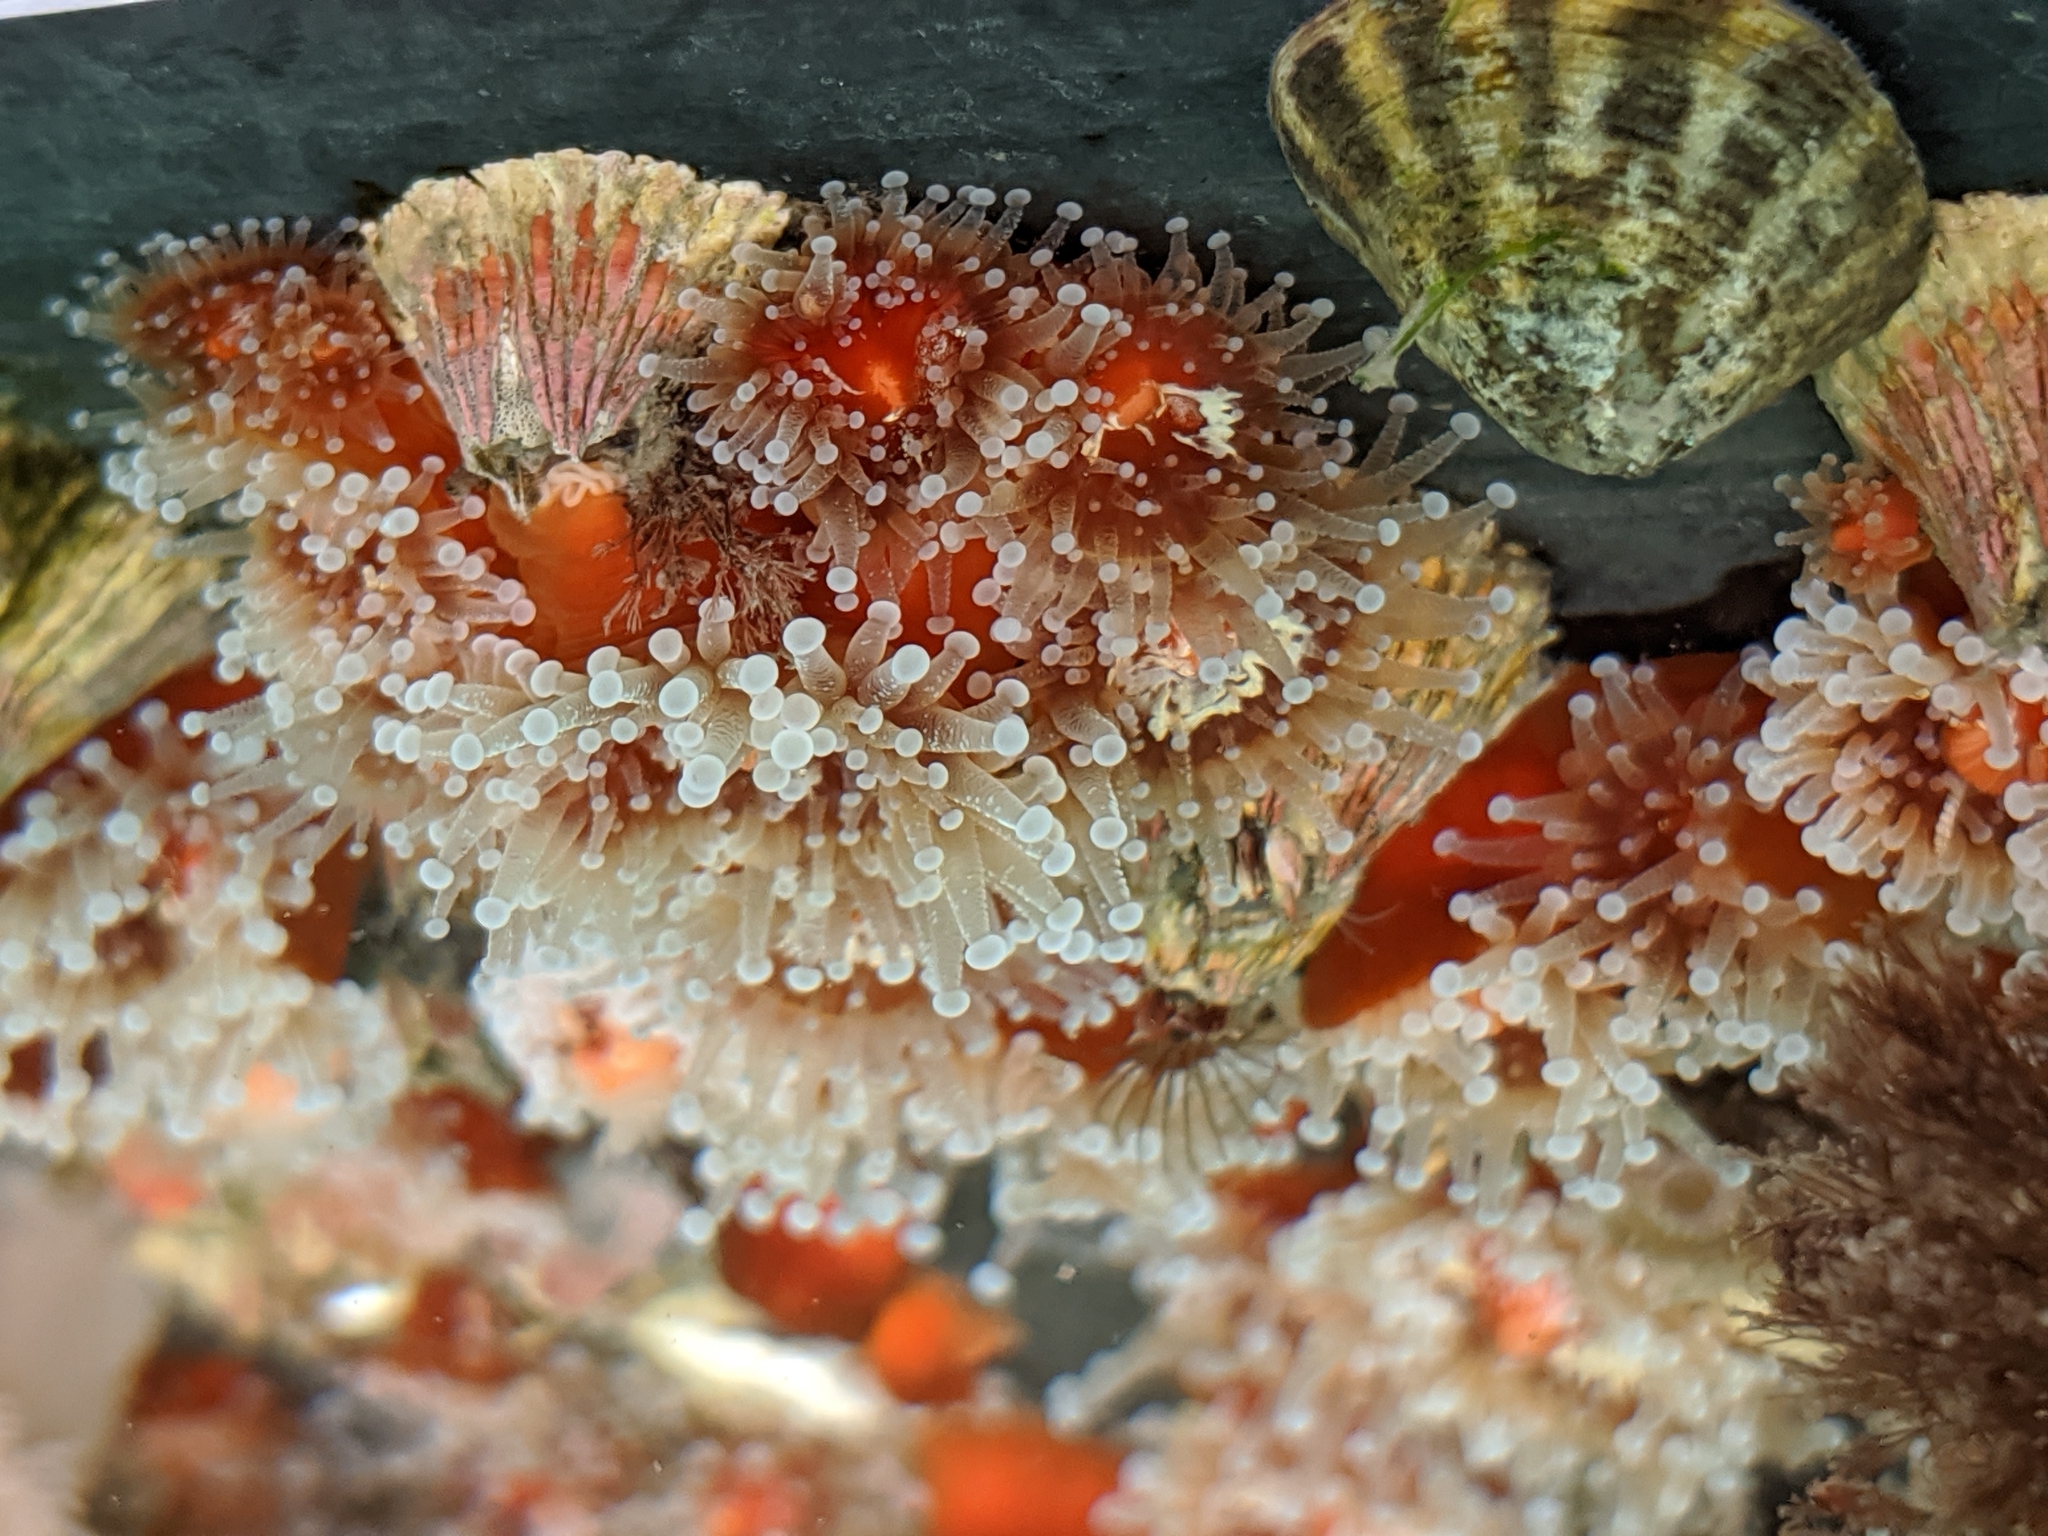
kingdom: Animalia
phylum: Cnidaria
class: Anthozoa
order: Corallimorpharia
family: Corallimorphidae
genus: Corynactis
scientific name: Corynactis californica
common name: Strawberry corallimorpharian
